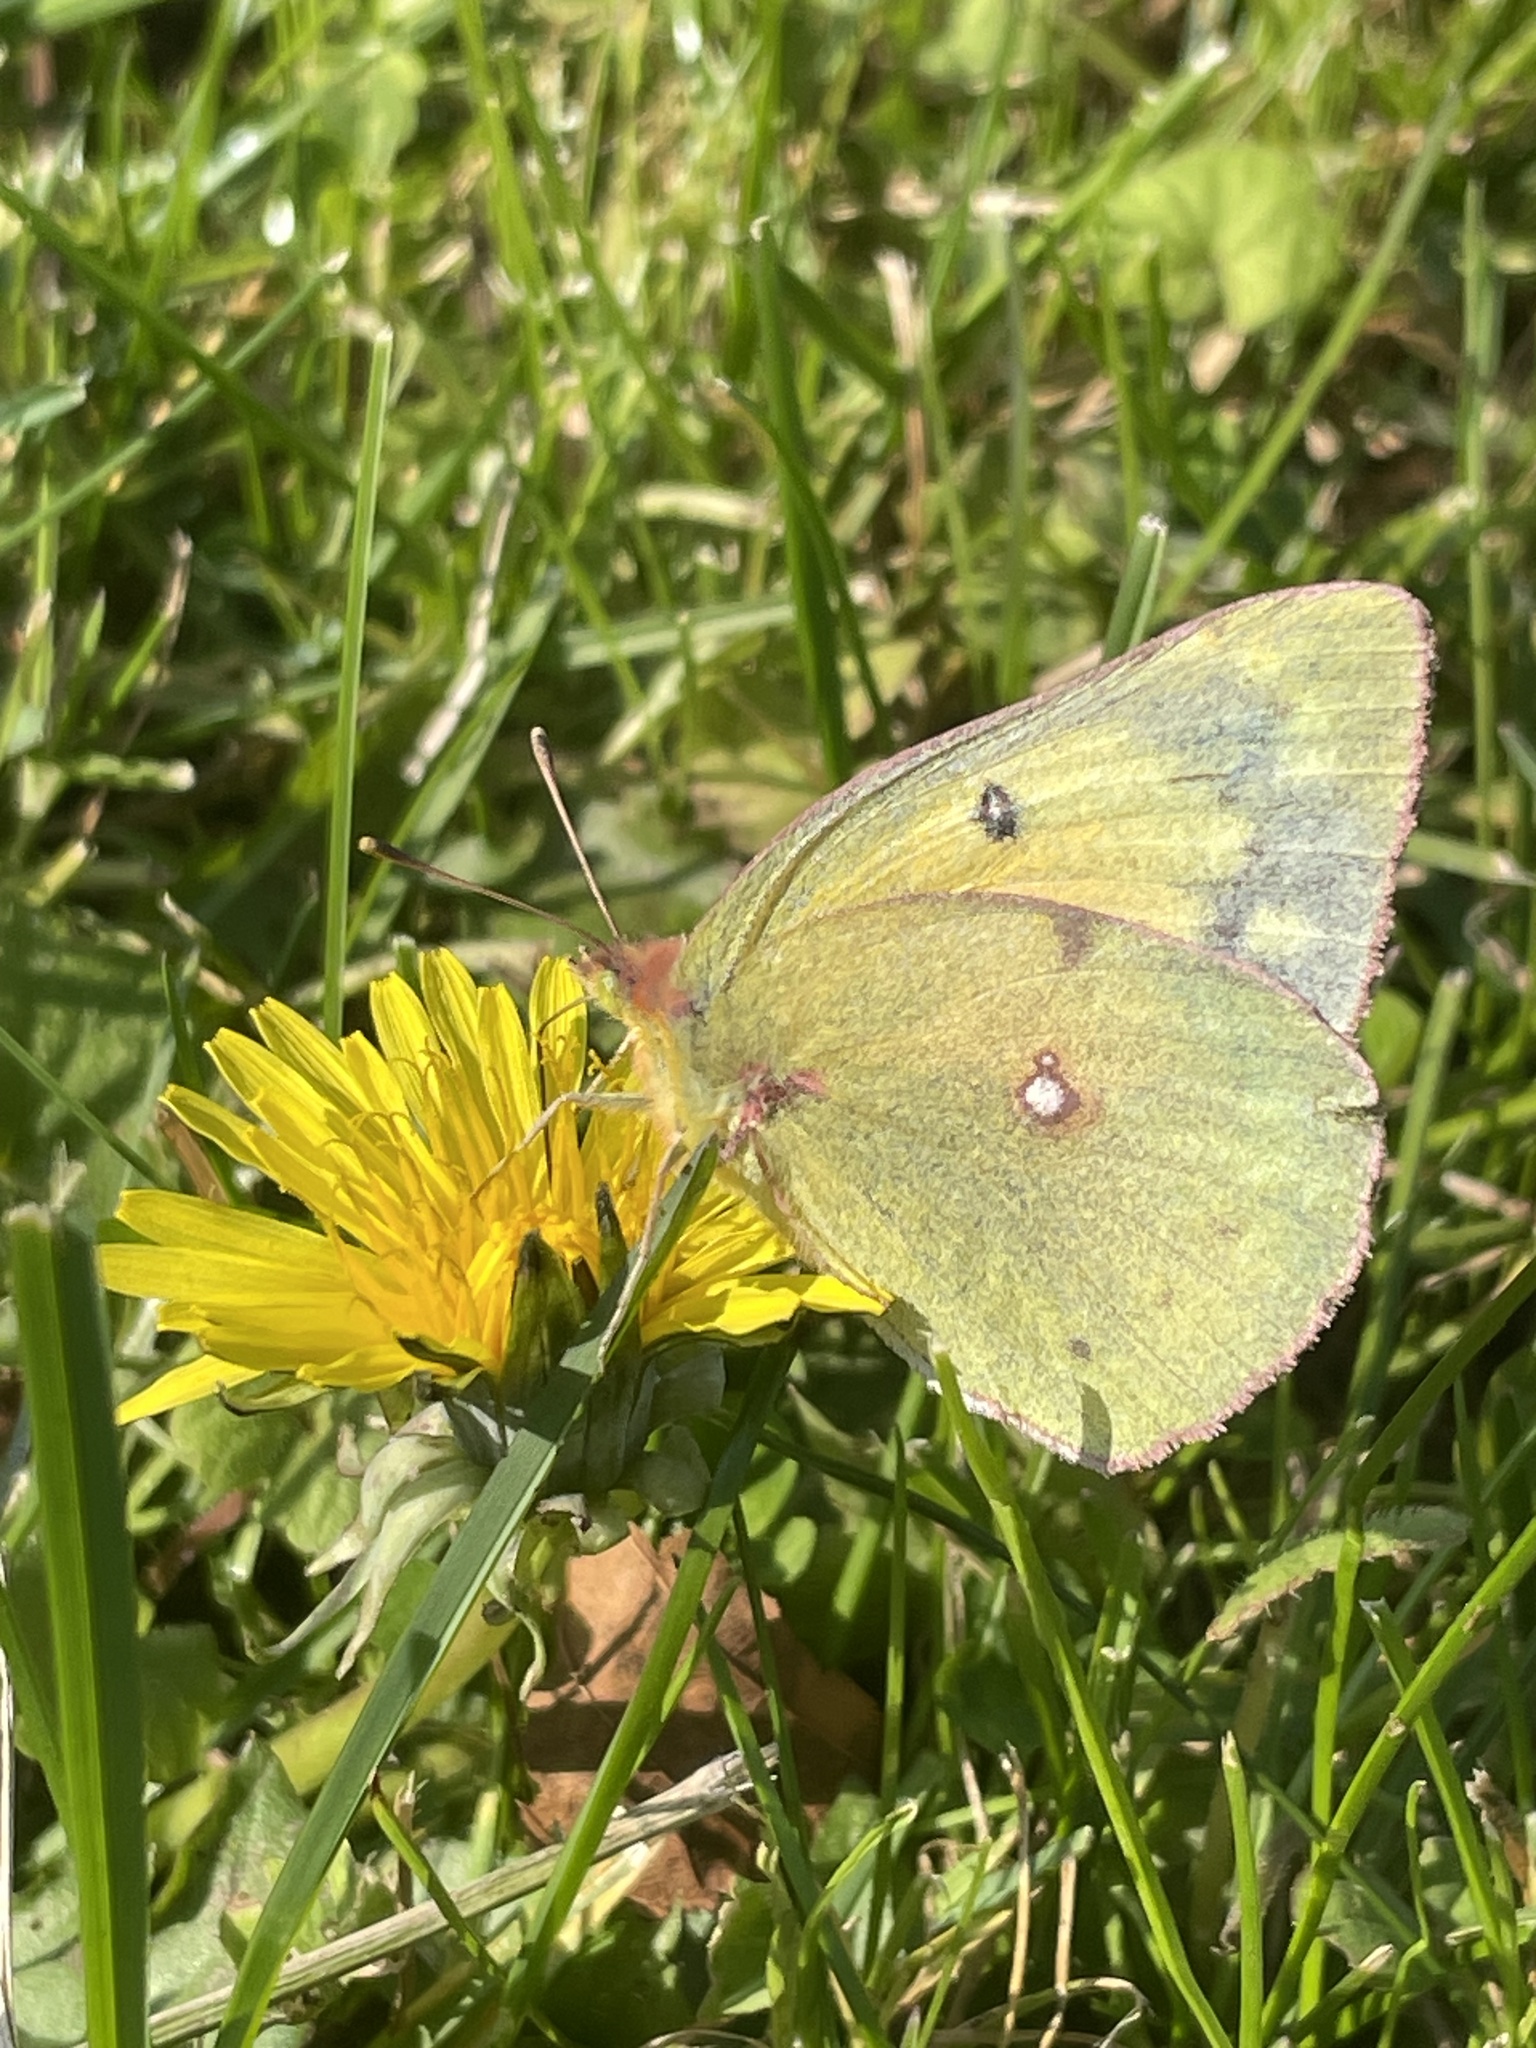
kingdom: Animalia
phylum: Arthropoda
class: Insecta
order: Lepidoptera
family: Pieridae
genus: Colias
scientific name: Colias eurytheme
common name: Alfalfa butterfly
